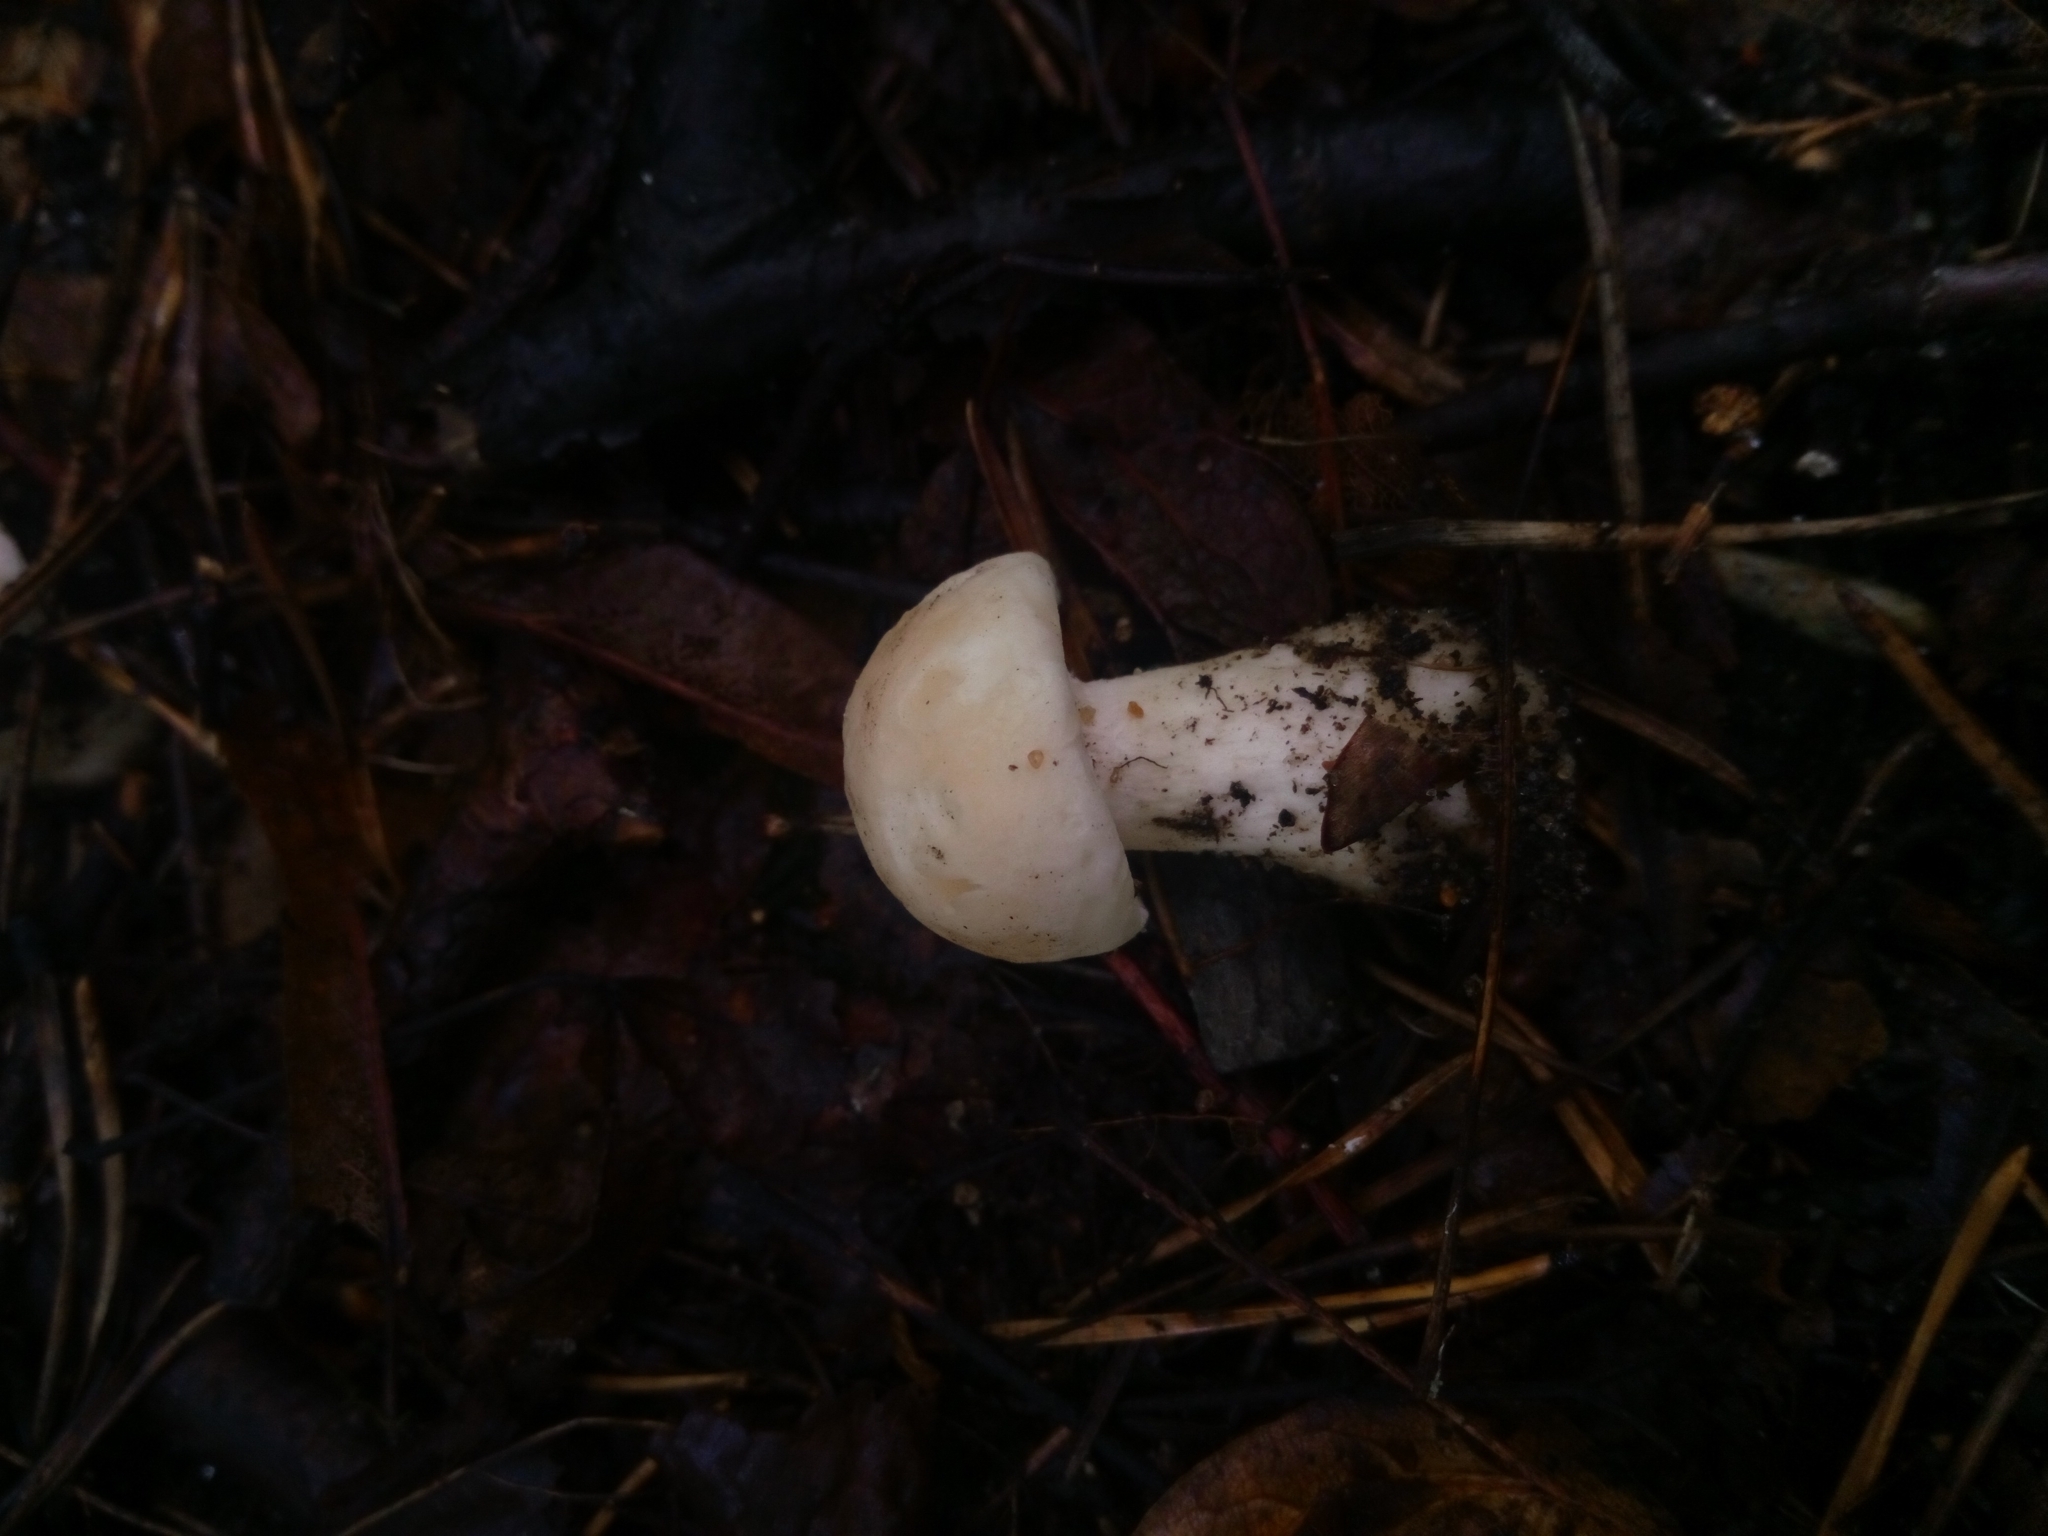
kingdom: Fungi
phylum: Basidiomycota
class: Agaricomycetes
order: Agaricales
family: Lyophyllaceae
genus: Calocybe
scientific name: Calocybe gambosa
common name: St. george's mushroom
